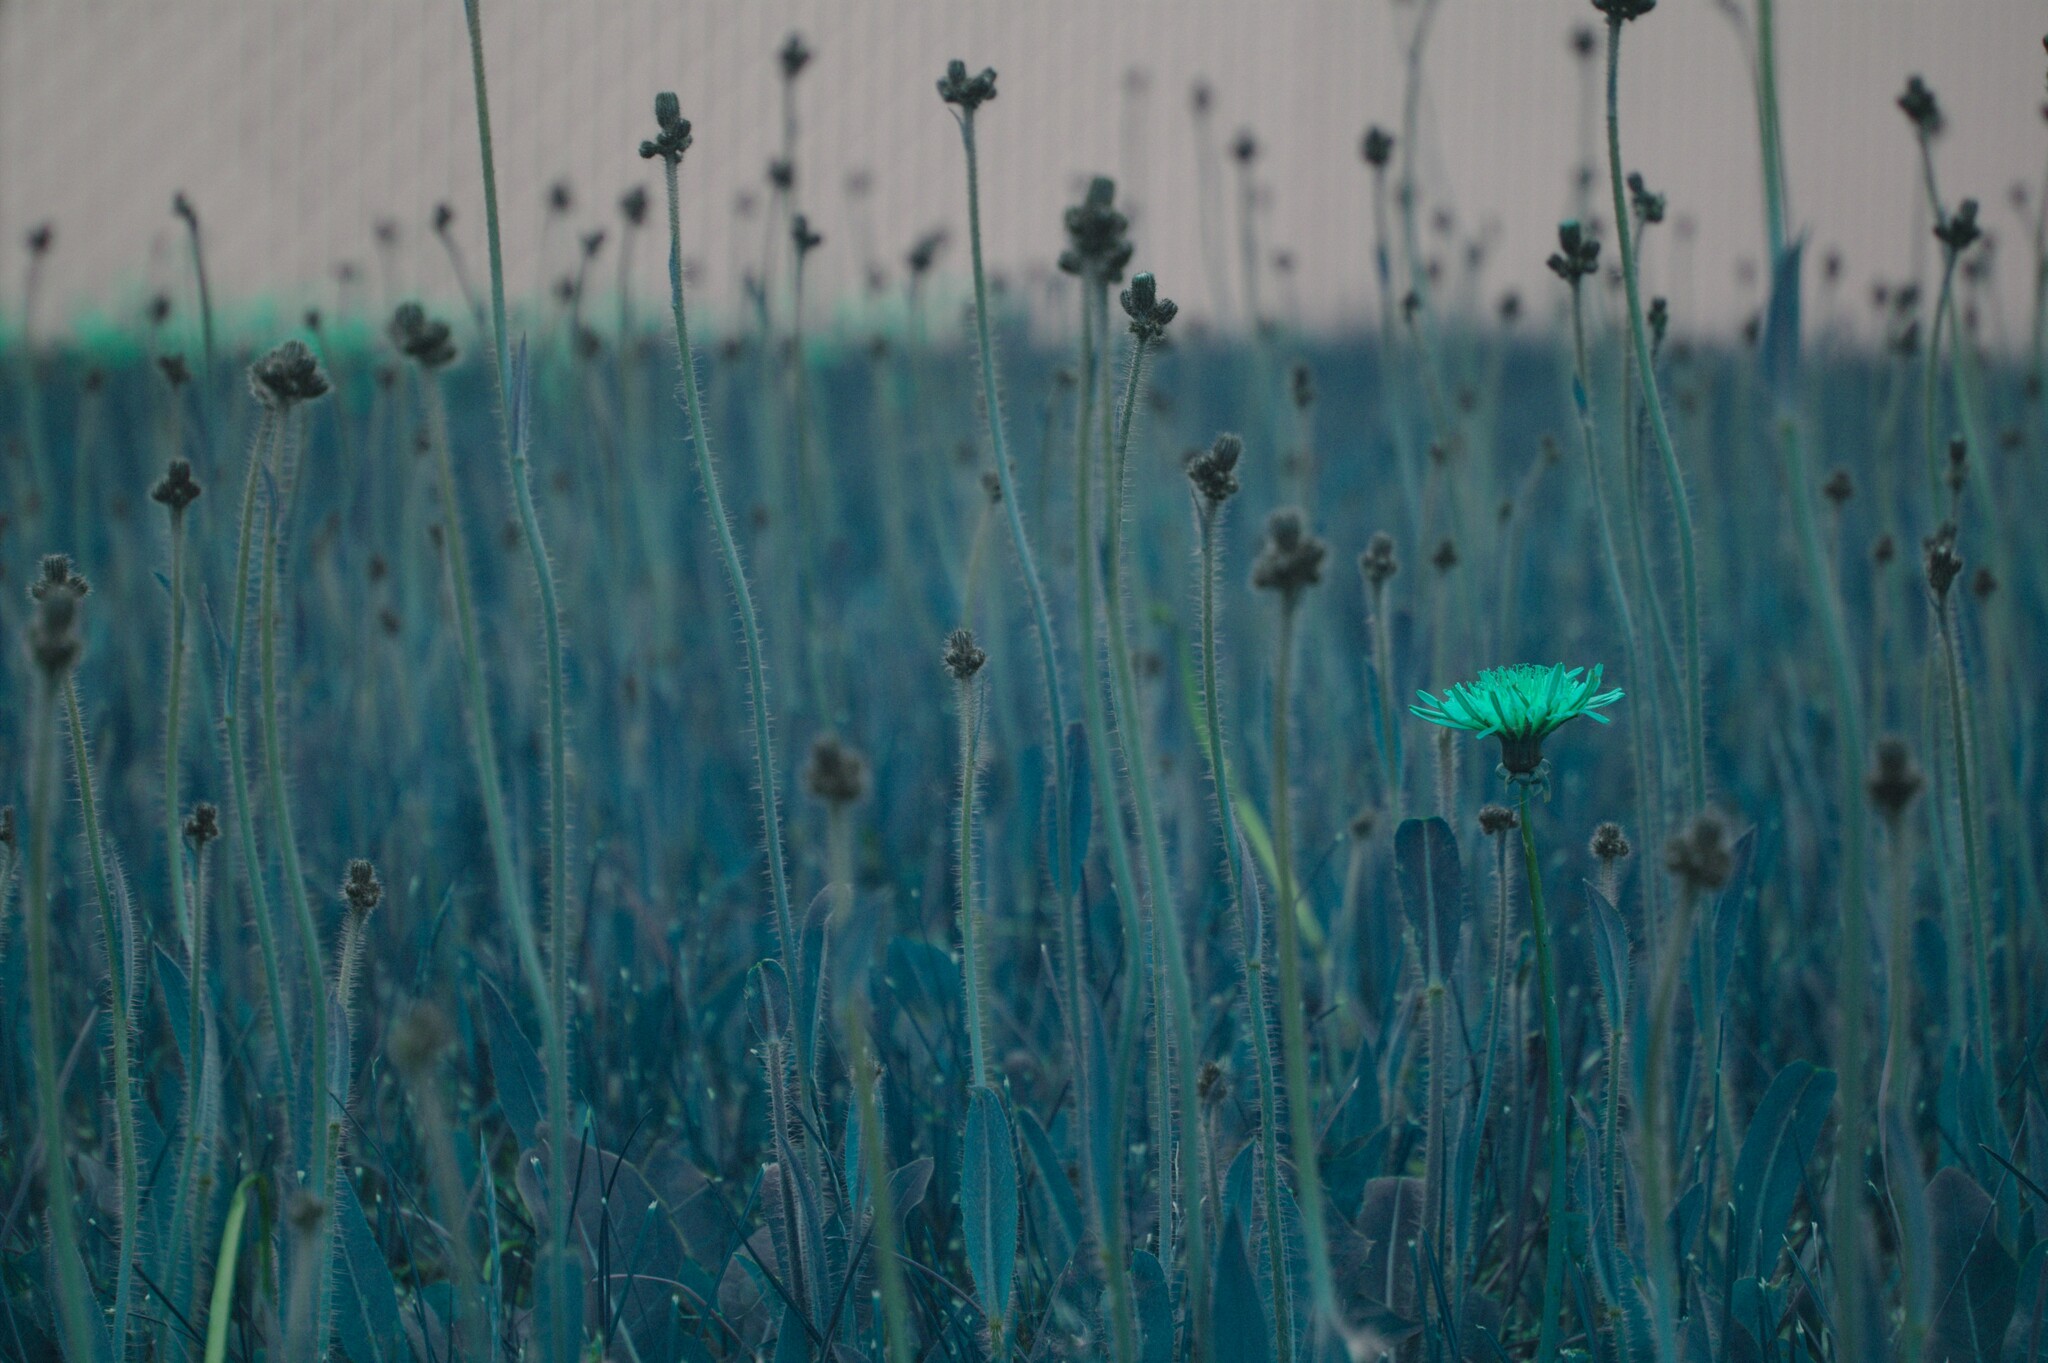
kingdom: Plantae
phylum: Tracheophyta
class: Magnoliopsida
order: Asterales
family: Asteraceae
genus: Taraxacum
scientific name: Taraxacum
